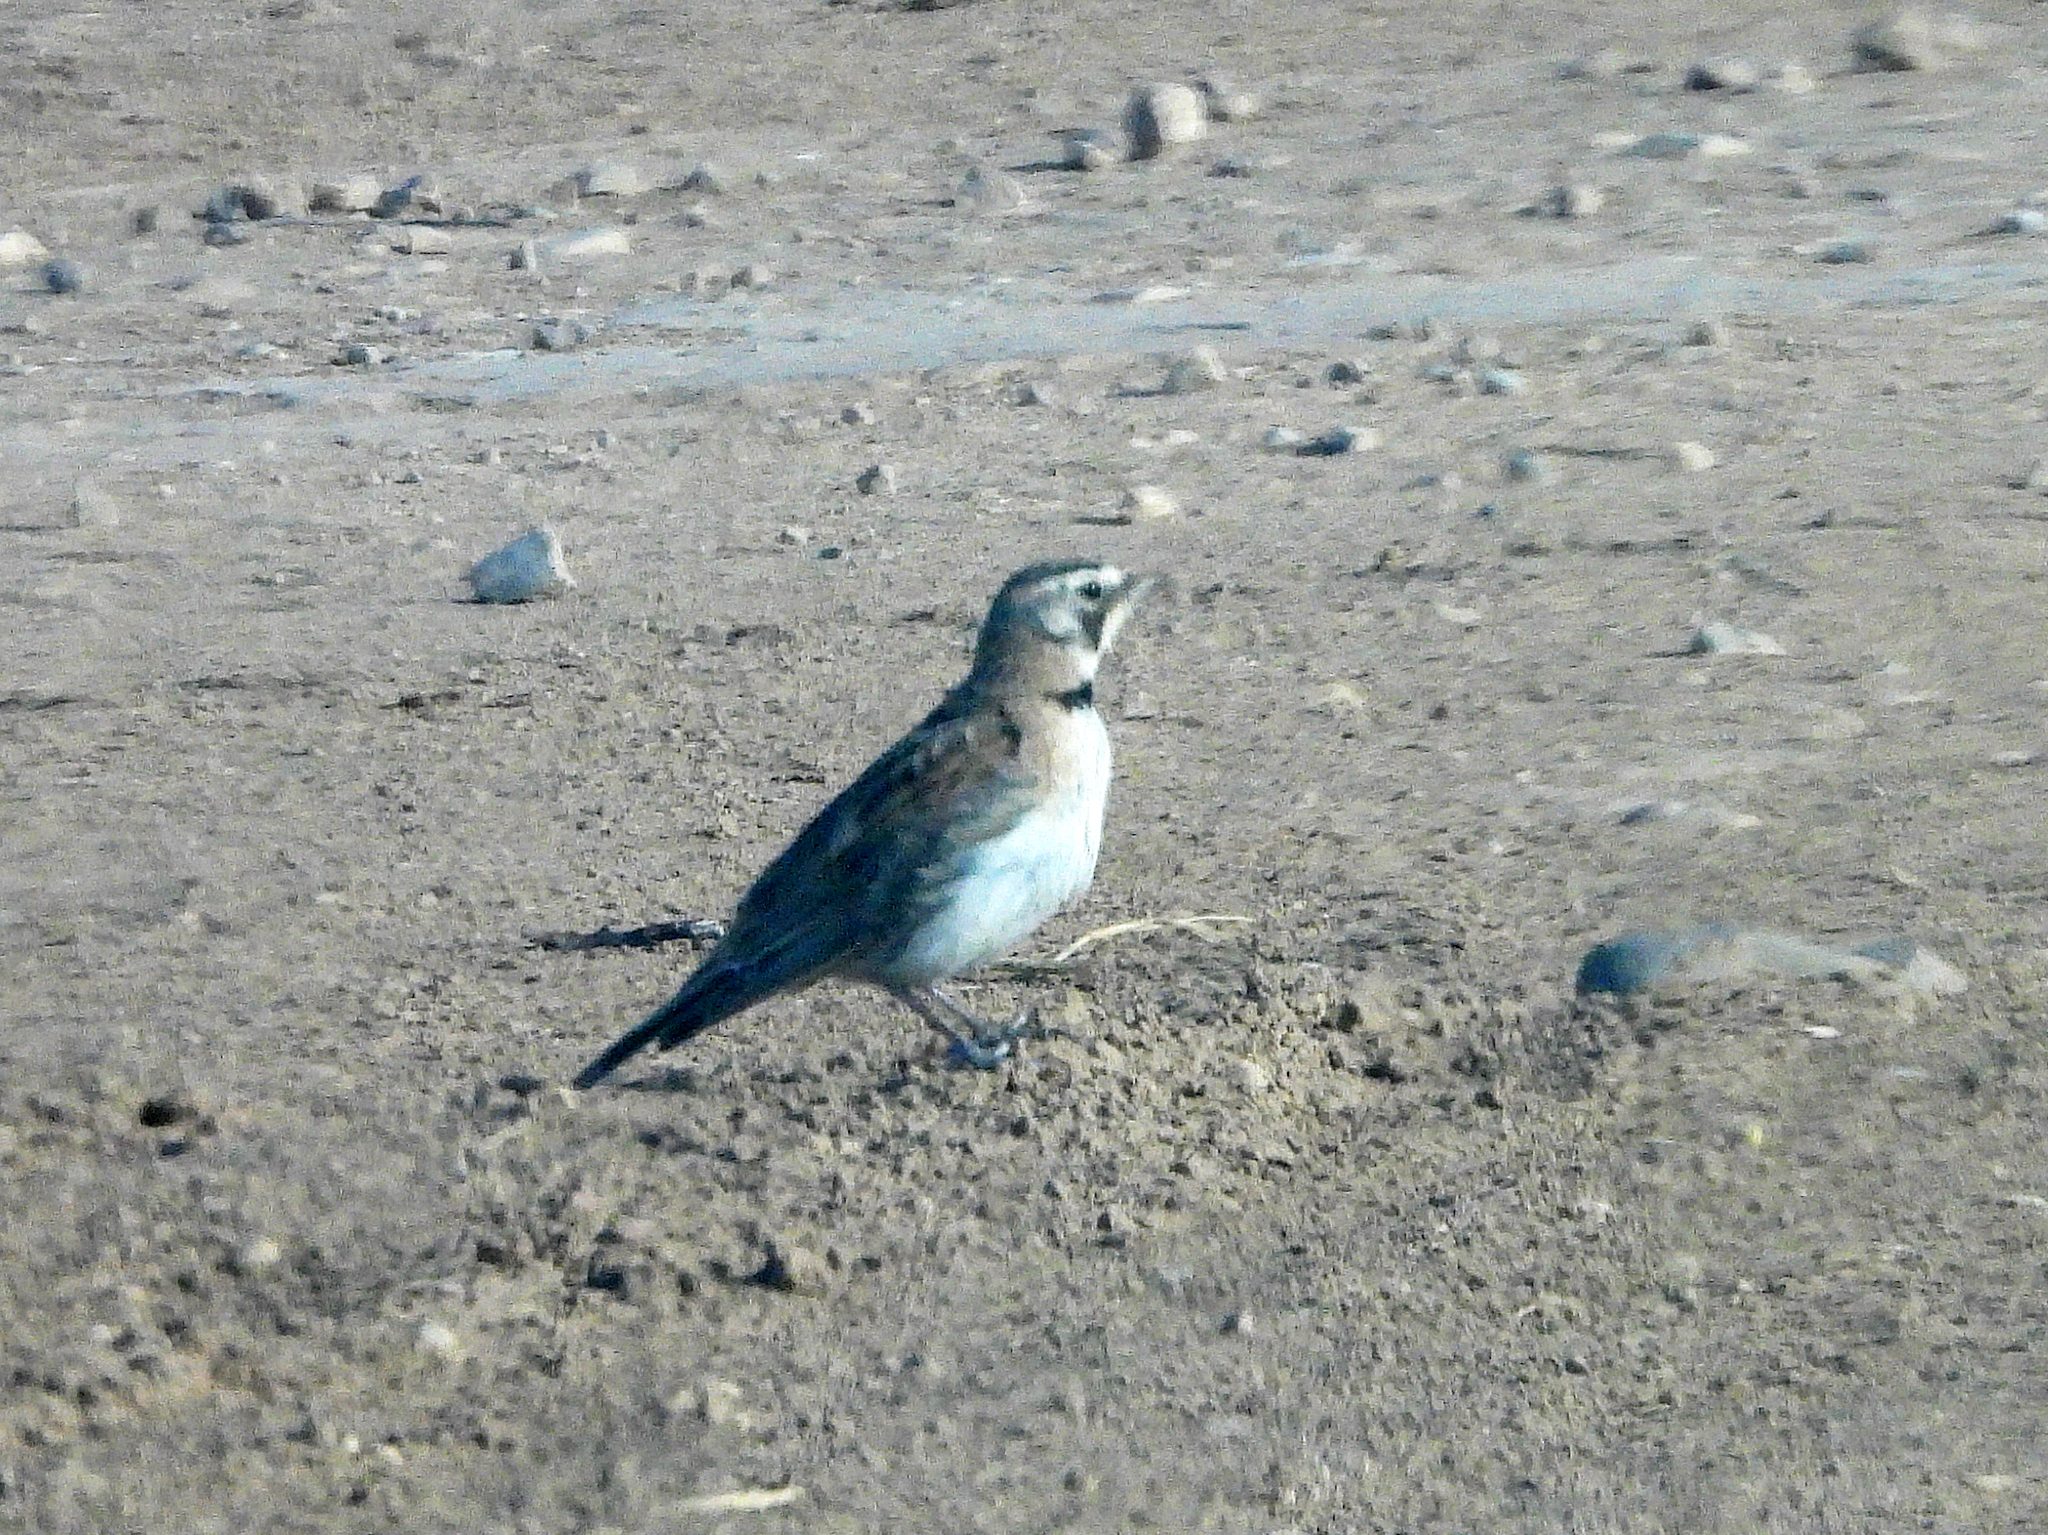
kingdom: Animalia
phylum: Chordata
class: Aves
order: Passeriformes
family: Alaudidae
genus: Eremophila
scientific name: Eremophila alpestris
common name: Horned lark
